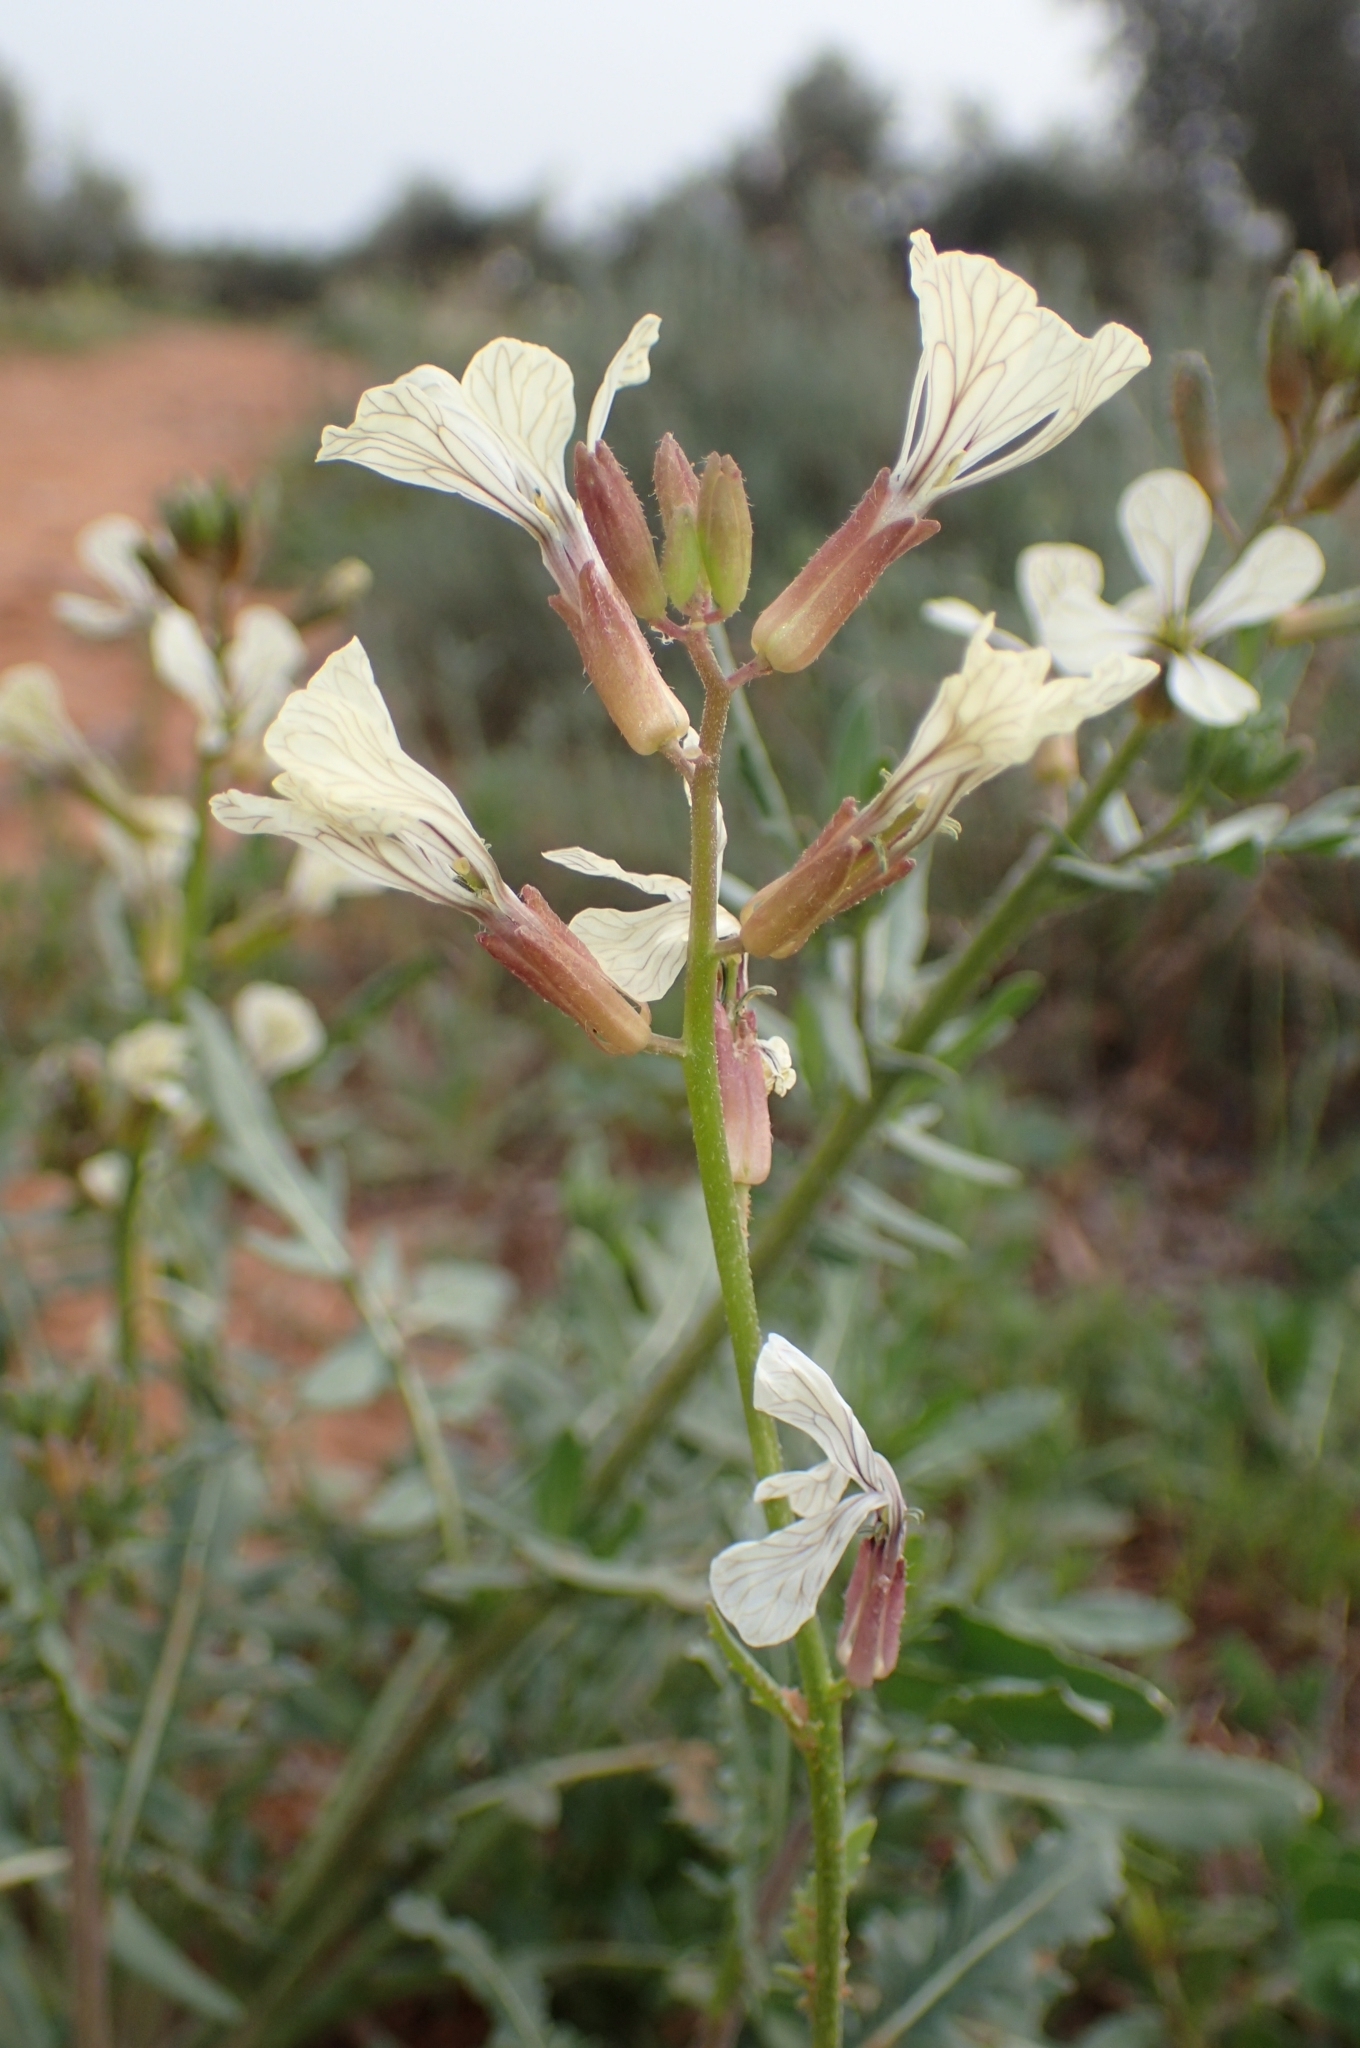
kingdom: Plantae
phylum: Tracheophyta
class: Magnoliopsida
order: Brassicales
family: Brassicaceae
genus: Eruca
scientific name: Eruca vesicaria
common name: Garden rocket
